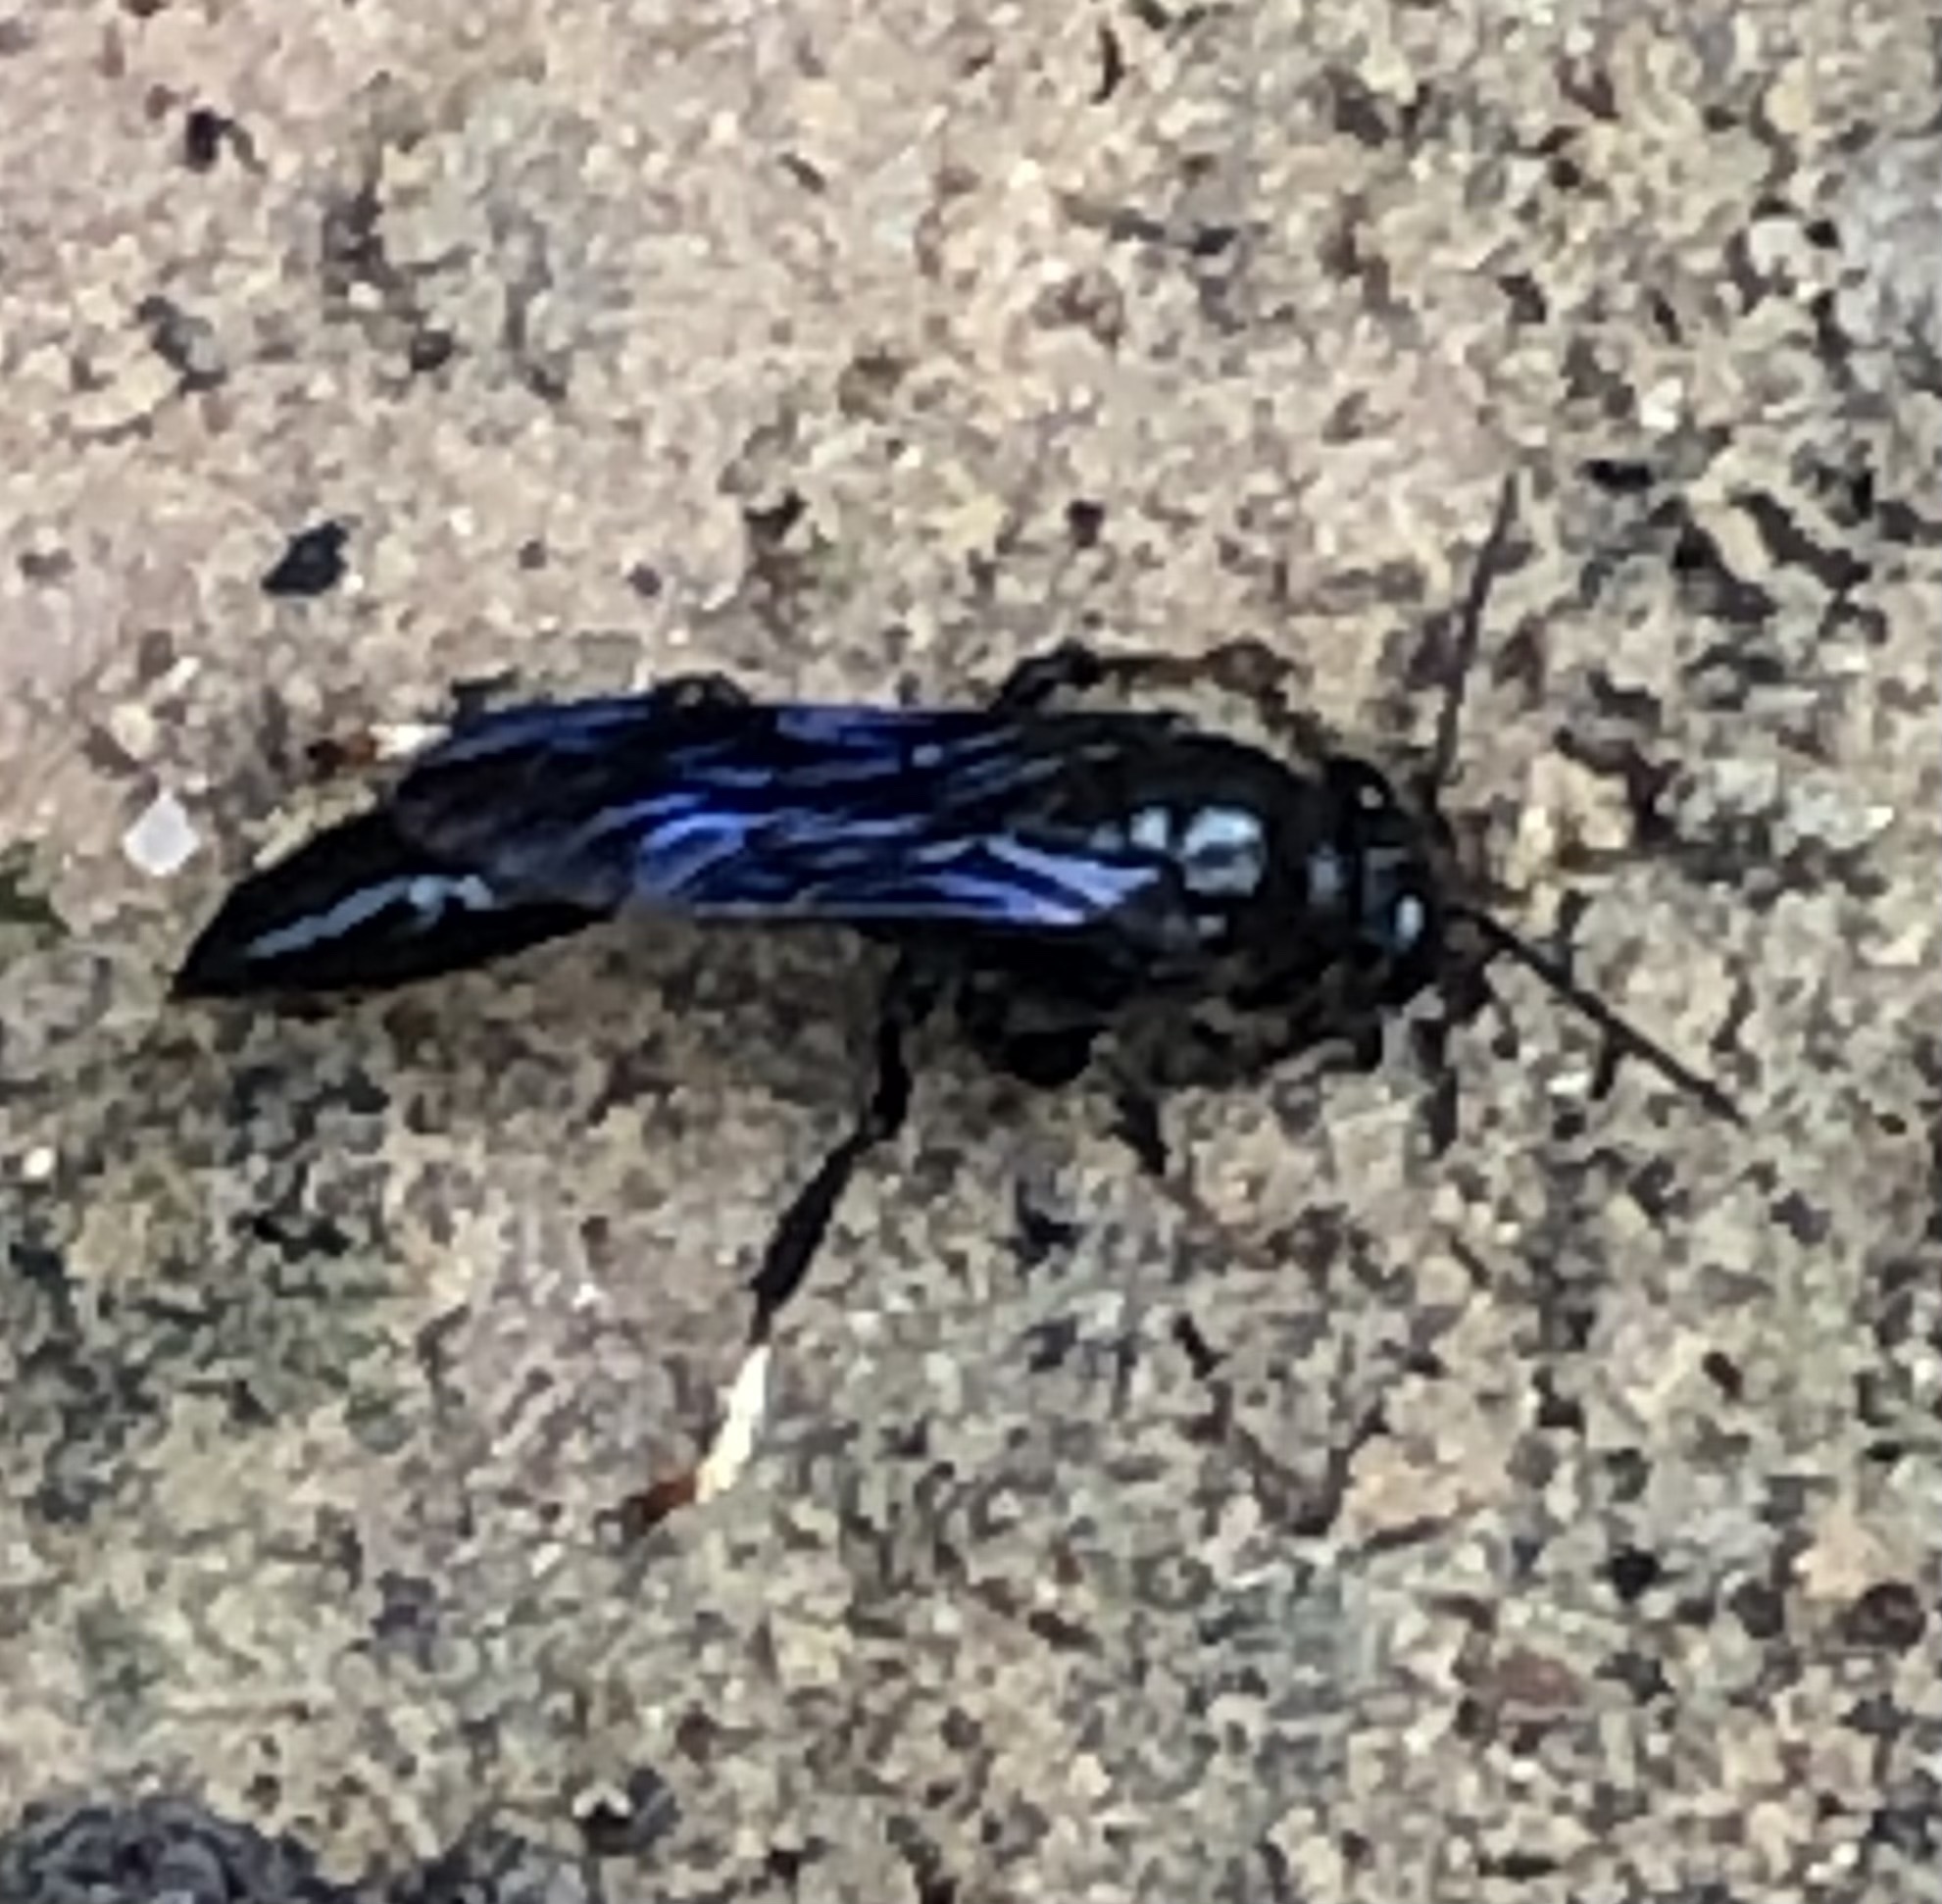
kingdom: Animalia
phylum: Arthropoda
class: Insecta
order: Hymenoptera
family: Crabronidae
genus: Trypoxylon
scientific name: Trypoxylon politum
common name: Organ-pipe mud-dauber wasp
